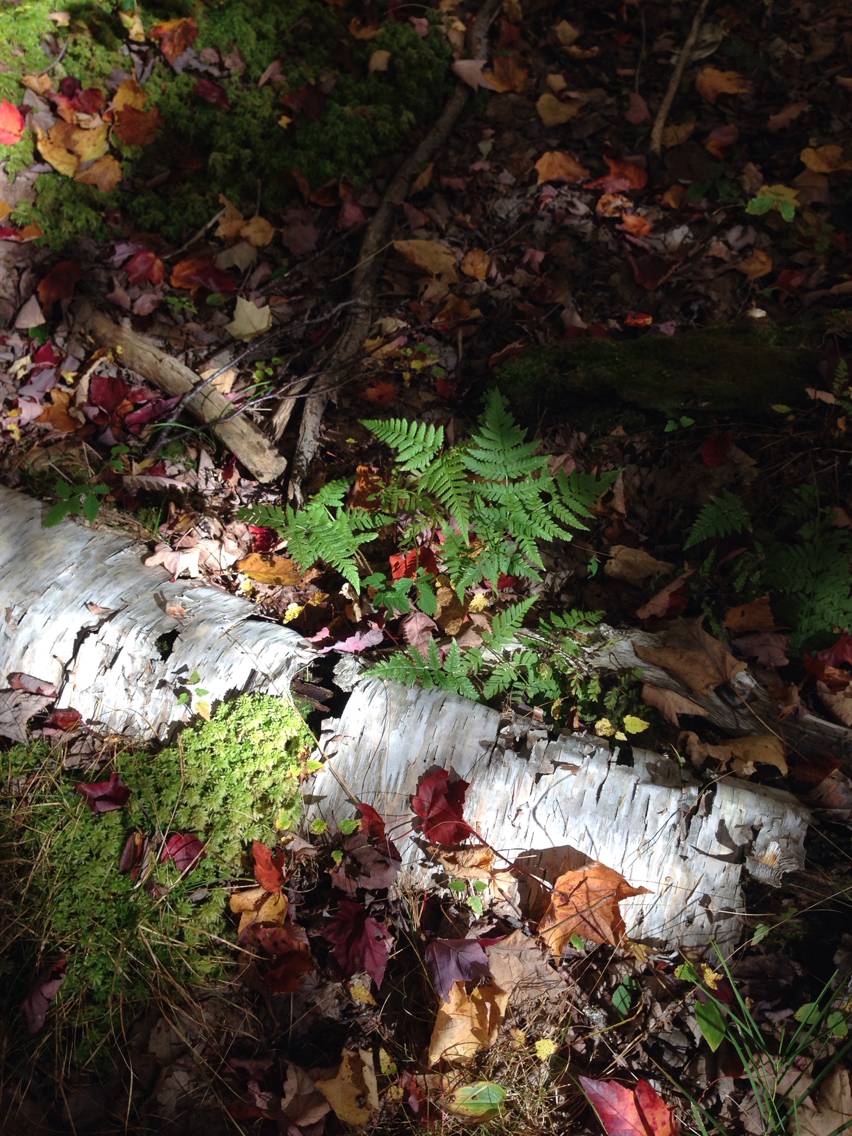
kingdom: Plantae
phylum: Tracheophyta
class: Polypodiopsida
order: Polypodiales
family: Dryopteridaceae
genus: Dryopteris
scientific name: Dryopteris carthusiana
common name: Narrow buckler-fern
